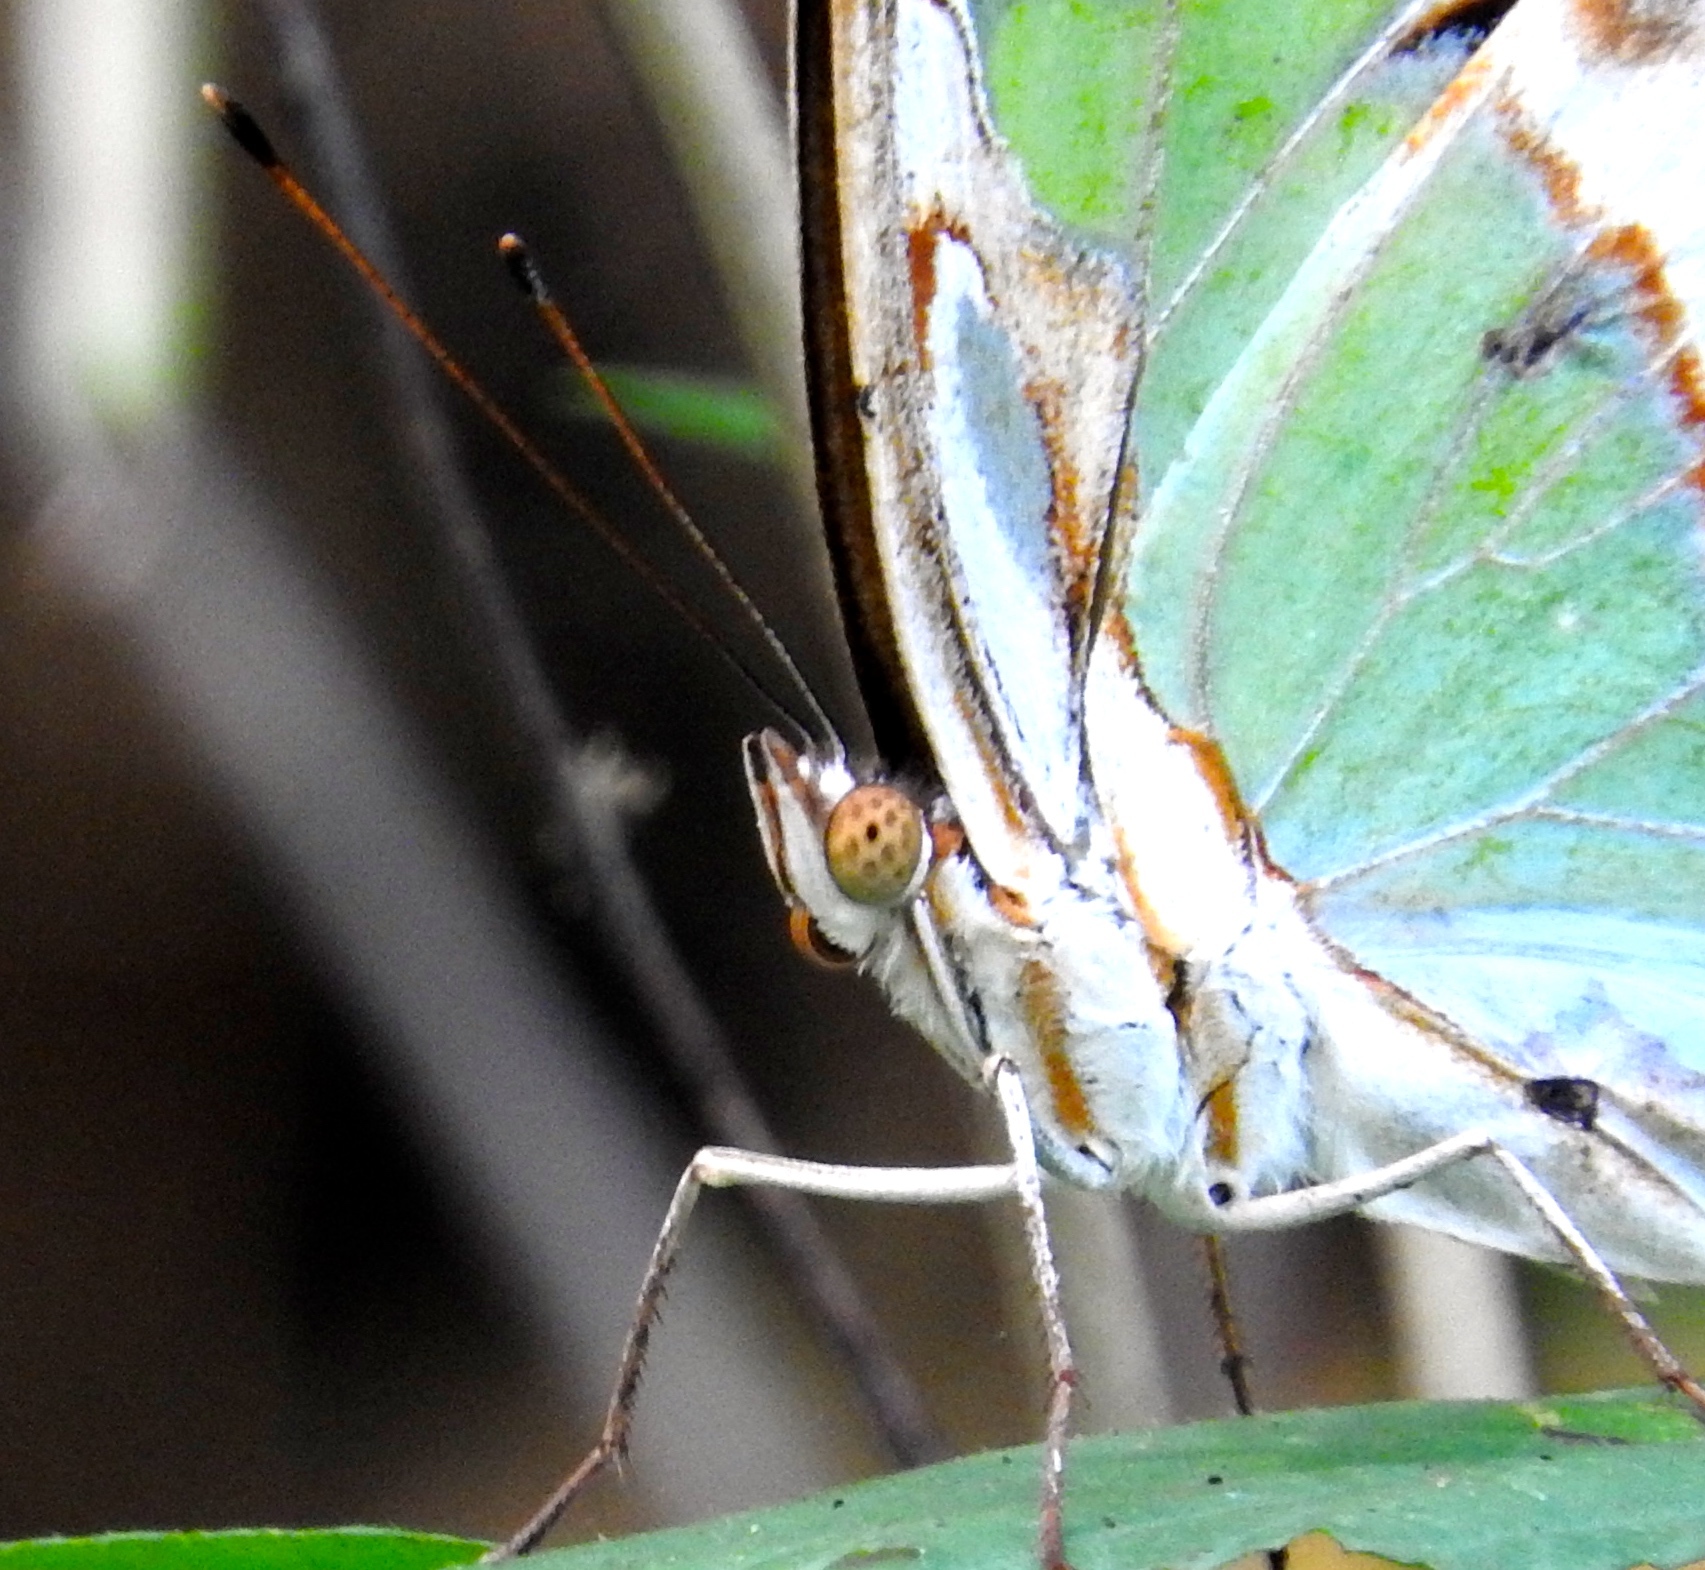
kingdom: Animalia
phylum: Arthropoda
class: Insecta
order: Lepidoptera
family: Nymphalidae
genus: Siproeta
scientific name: Siproeta stelenes
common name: Malachite
